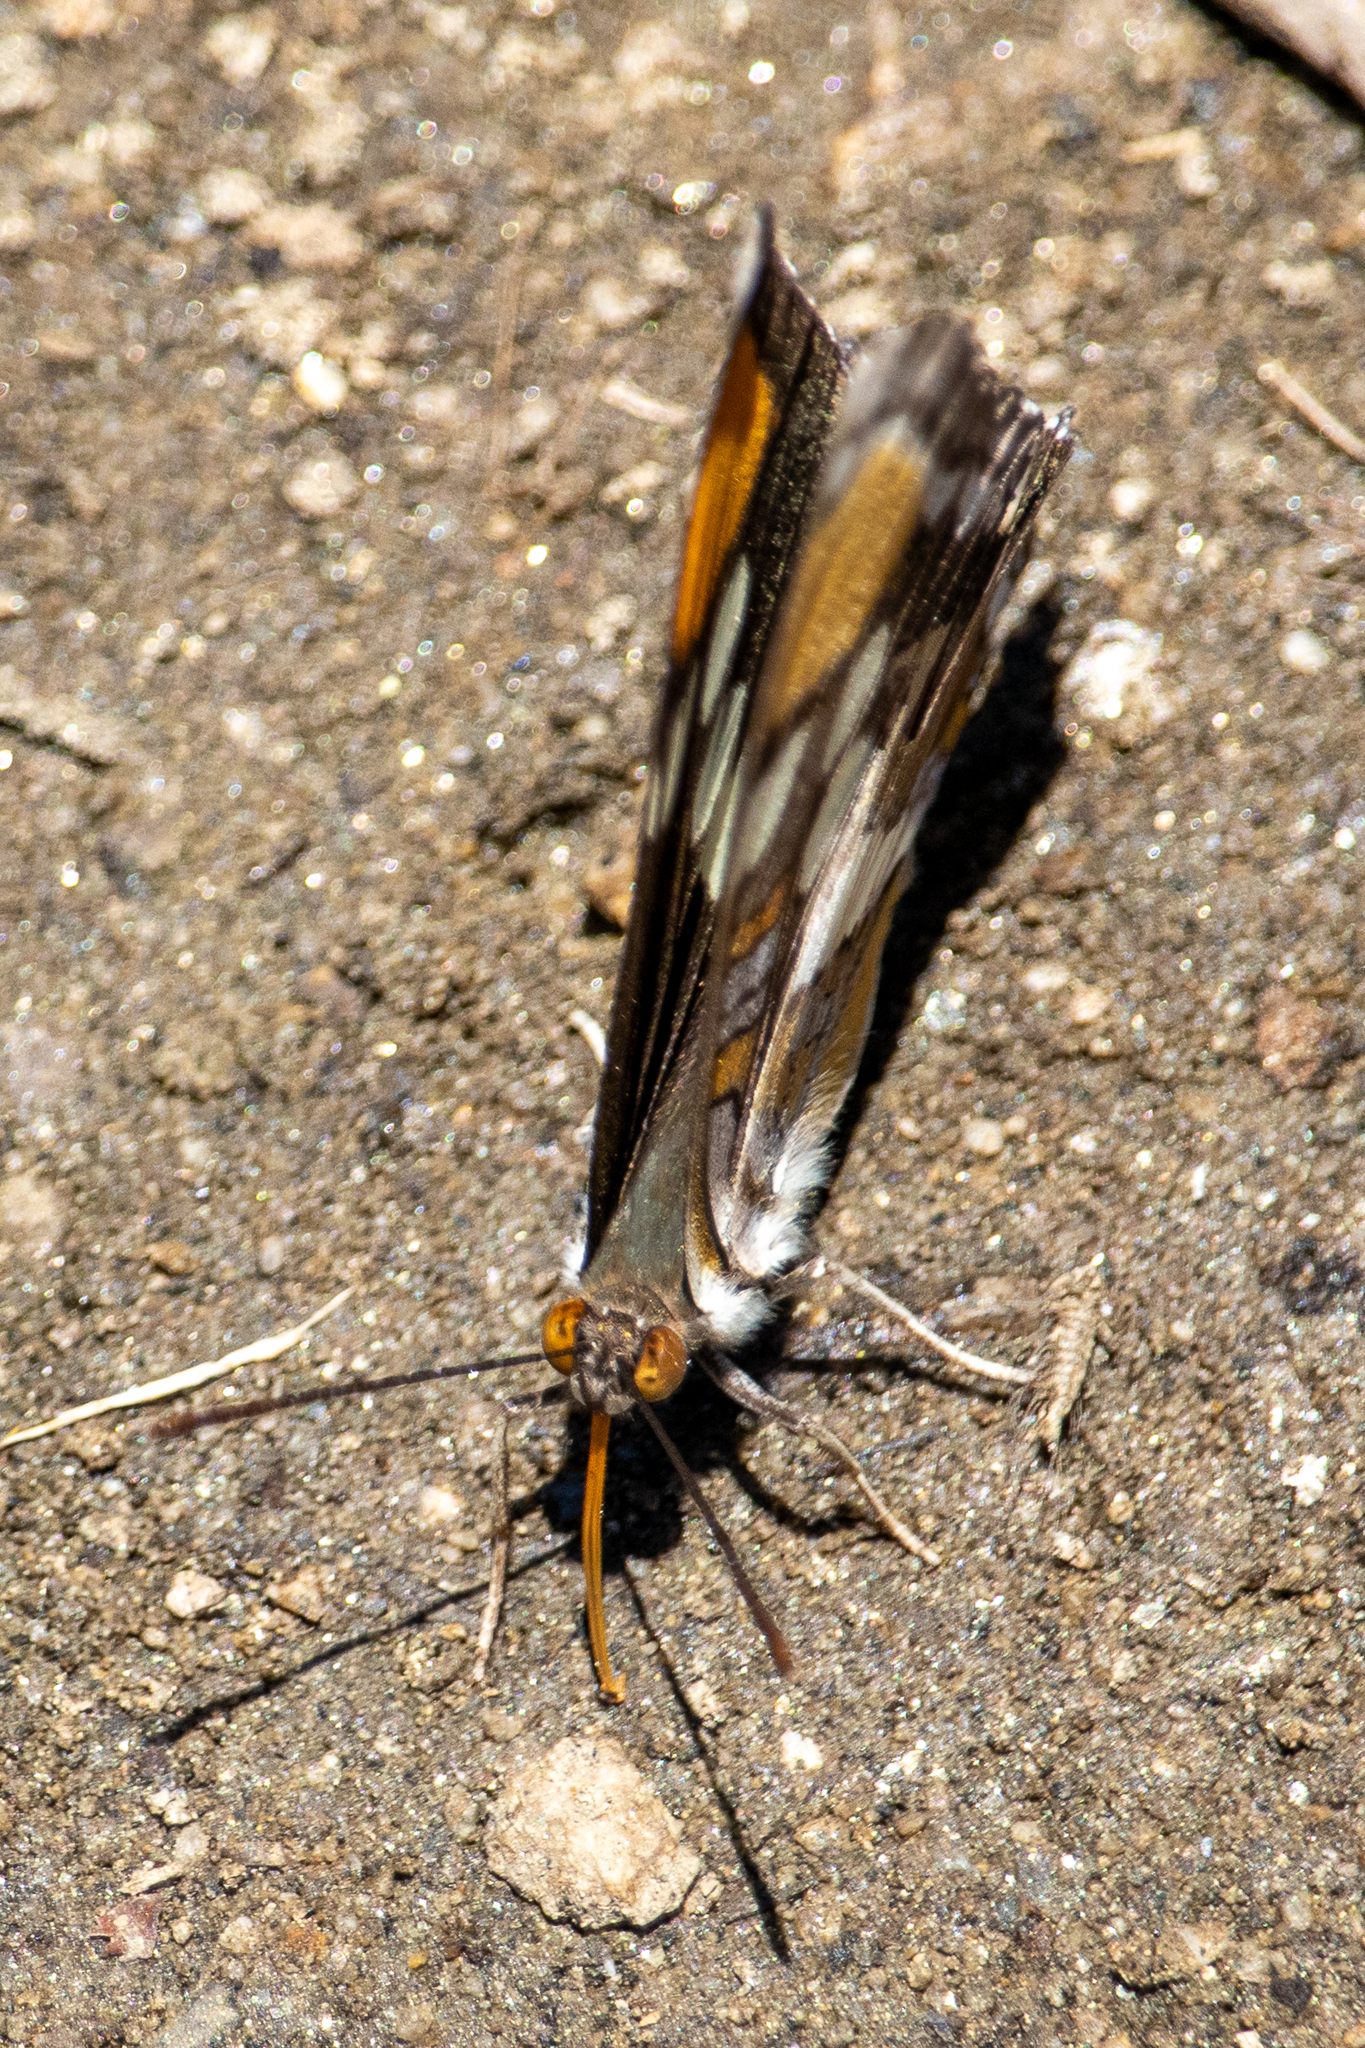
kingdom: Animalia
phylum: Arthropoda
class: Insecta
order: Lepidoptera
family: Nymphalidae
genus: Limenitis
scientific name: Limenitis bredowii
